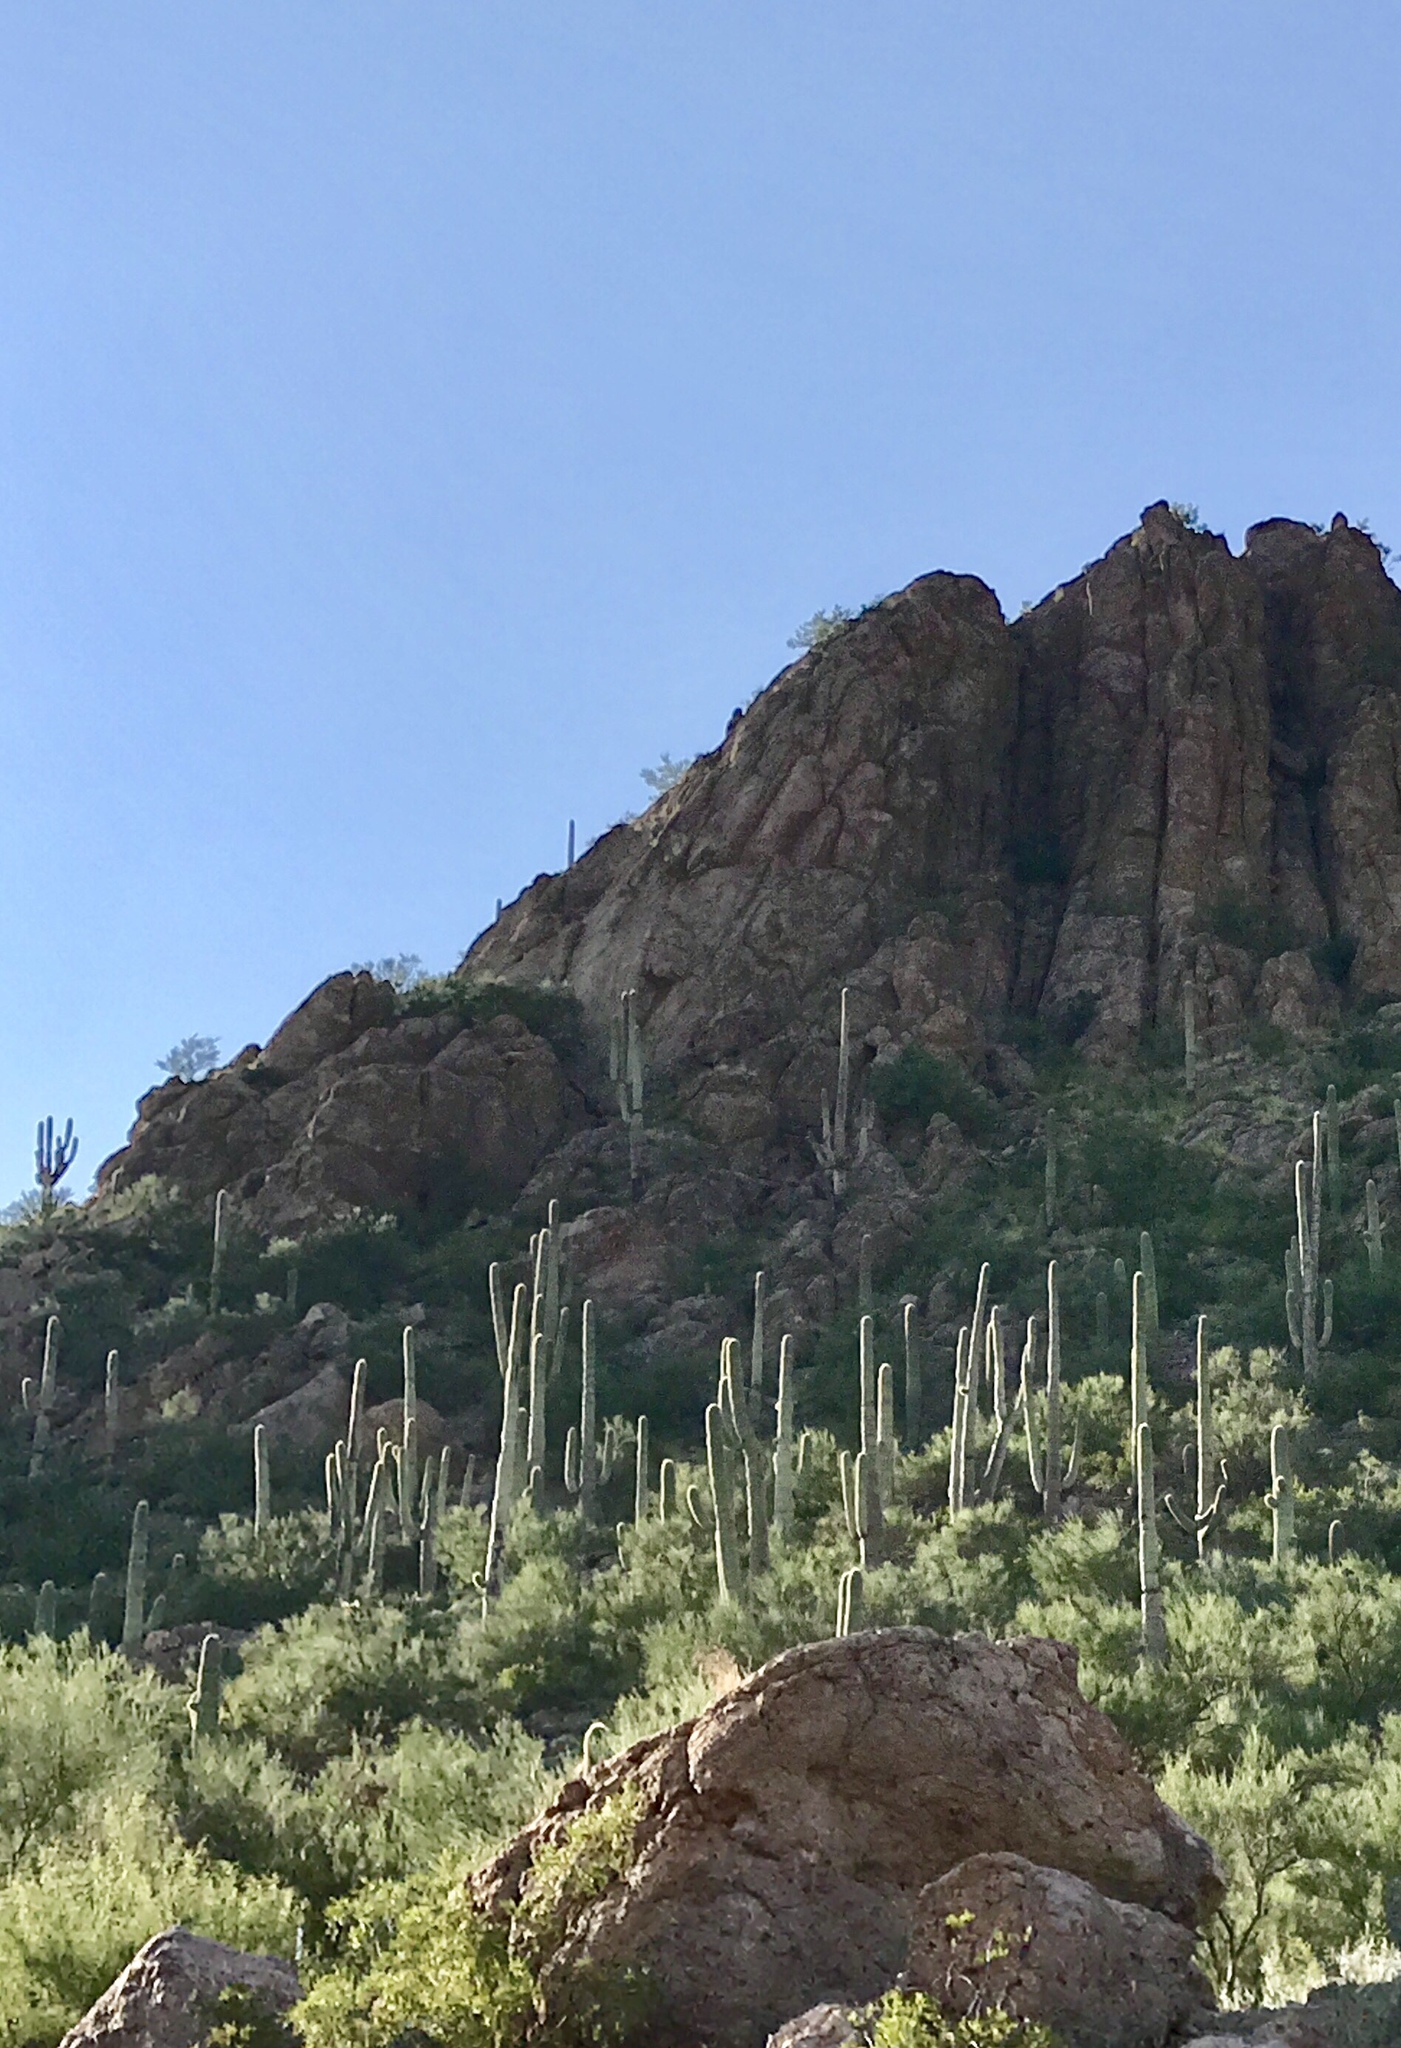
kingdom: Plantae
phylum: Tracheophyta
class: Magnoliopsida
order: Caryophyllales
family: Cactaceae
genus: Carnegiea
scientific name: Carnegiea gigantea
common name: Saguaro
